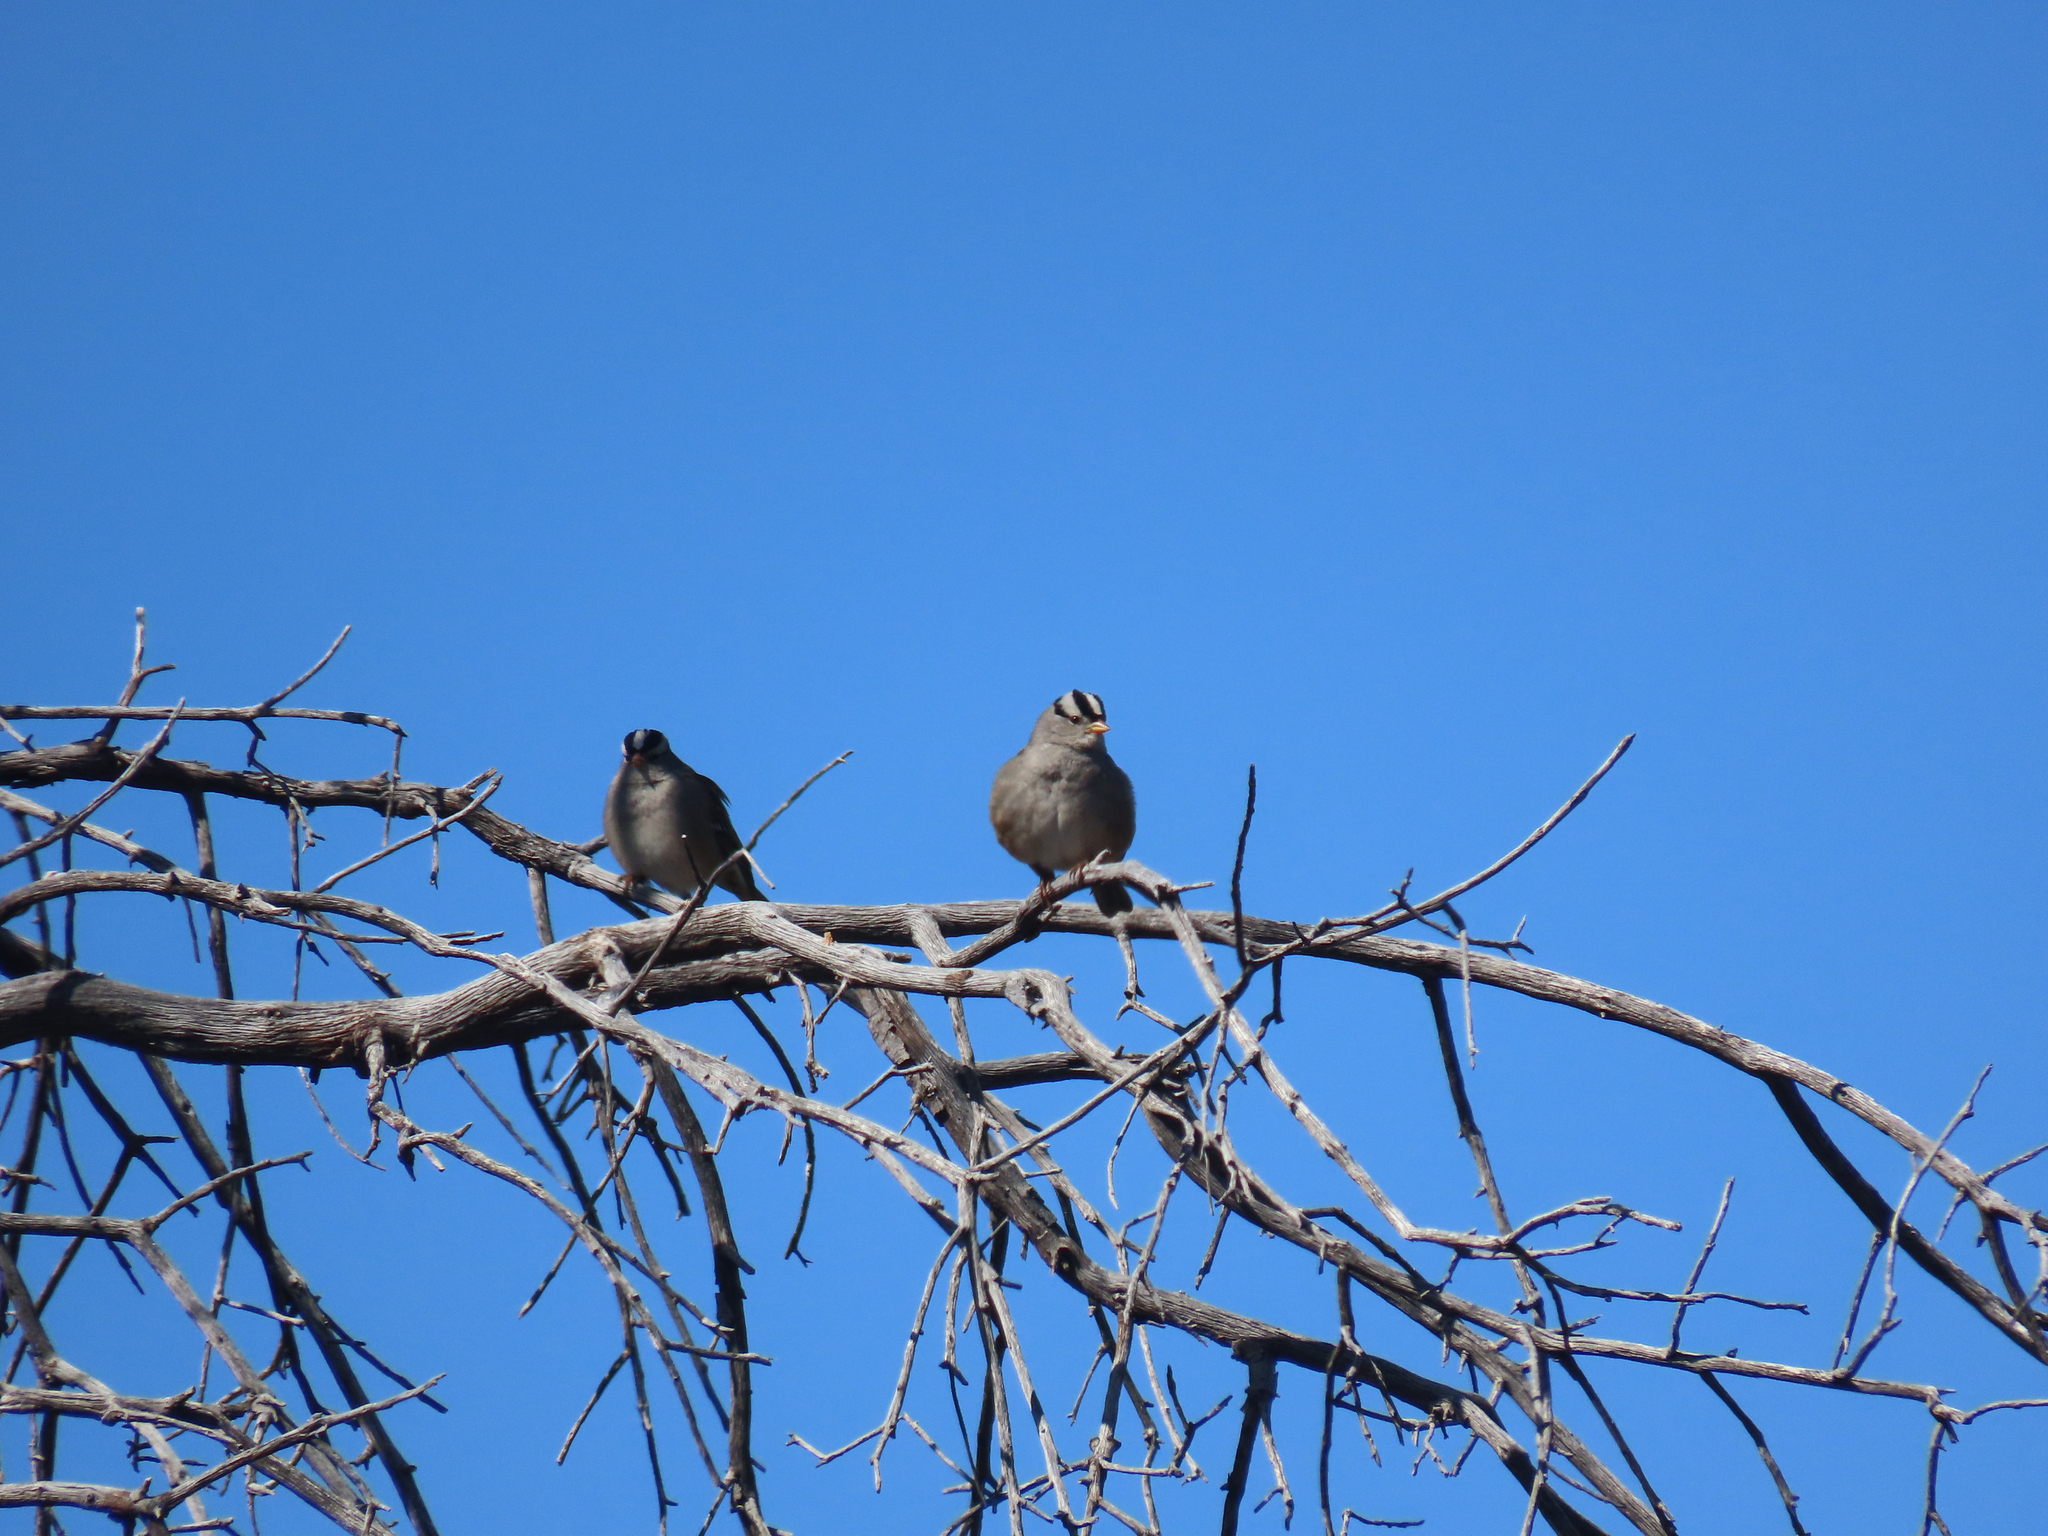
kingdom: Animalia
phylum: Chordata
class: Aves
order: Passeriformes
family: Passerellidae
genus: Zonotrichia
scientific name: Zonotrichia leucophrys
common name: White-crowned sparrow
